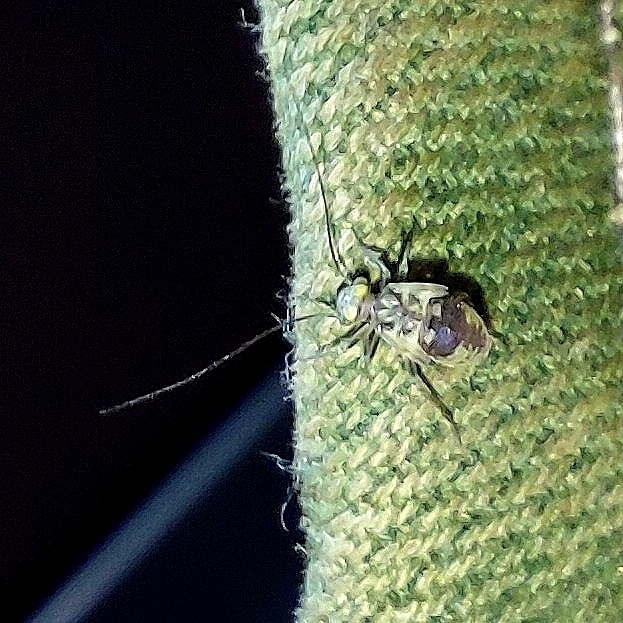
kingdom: Animalia
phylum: Arthropoda
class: Insecta
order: Psocodea
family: Psocidae
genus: Metylophorus
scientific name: Metylophorus nebulosus
